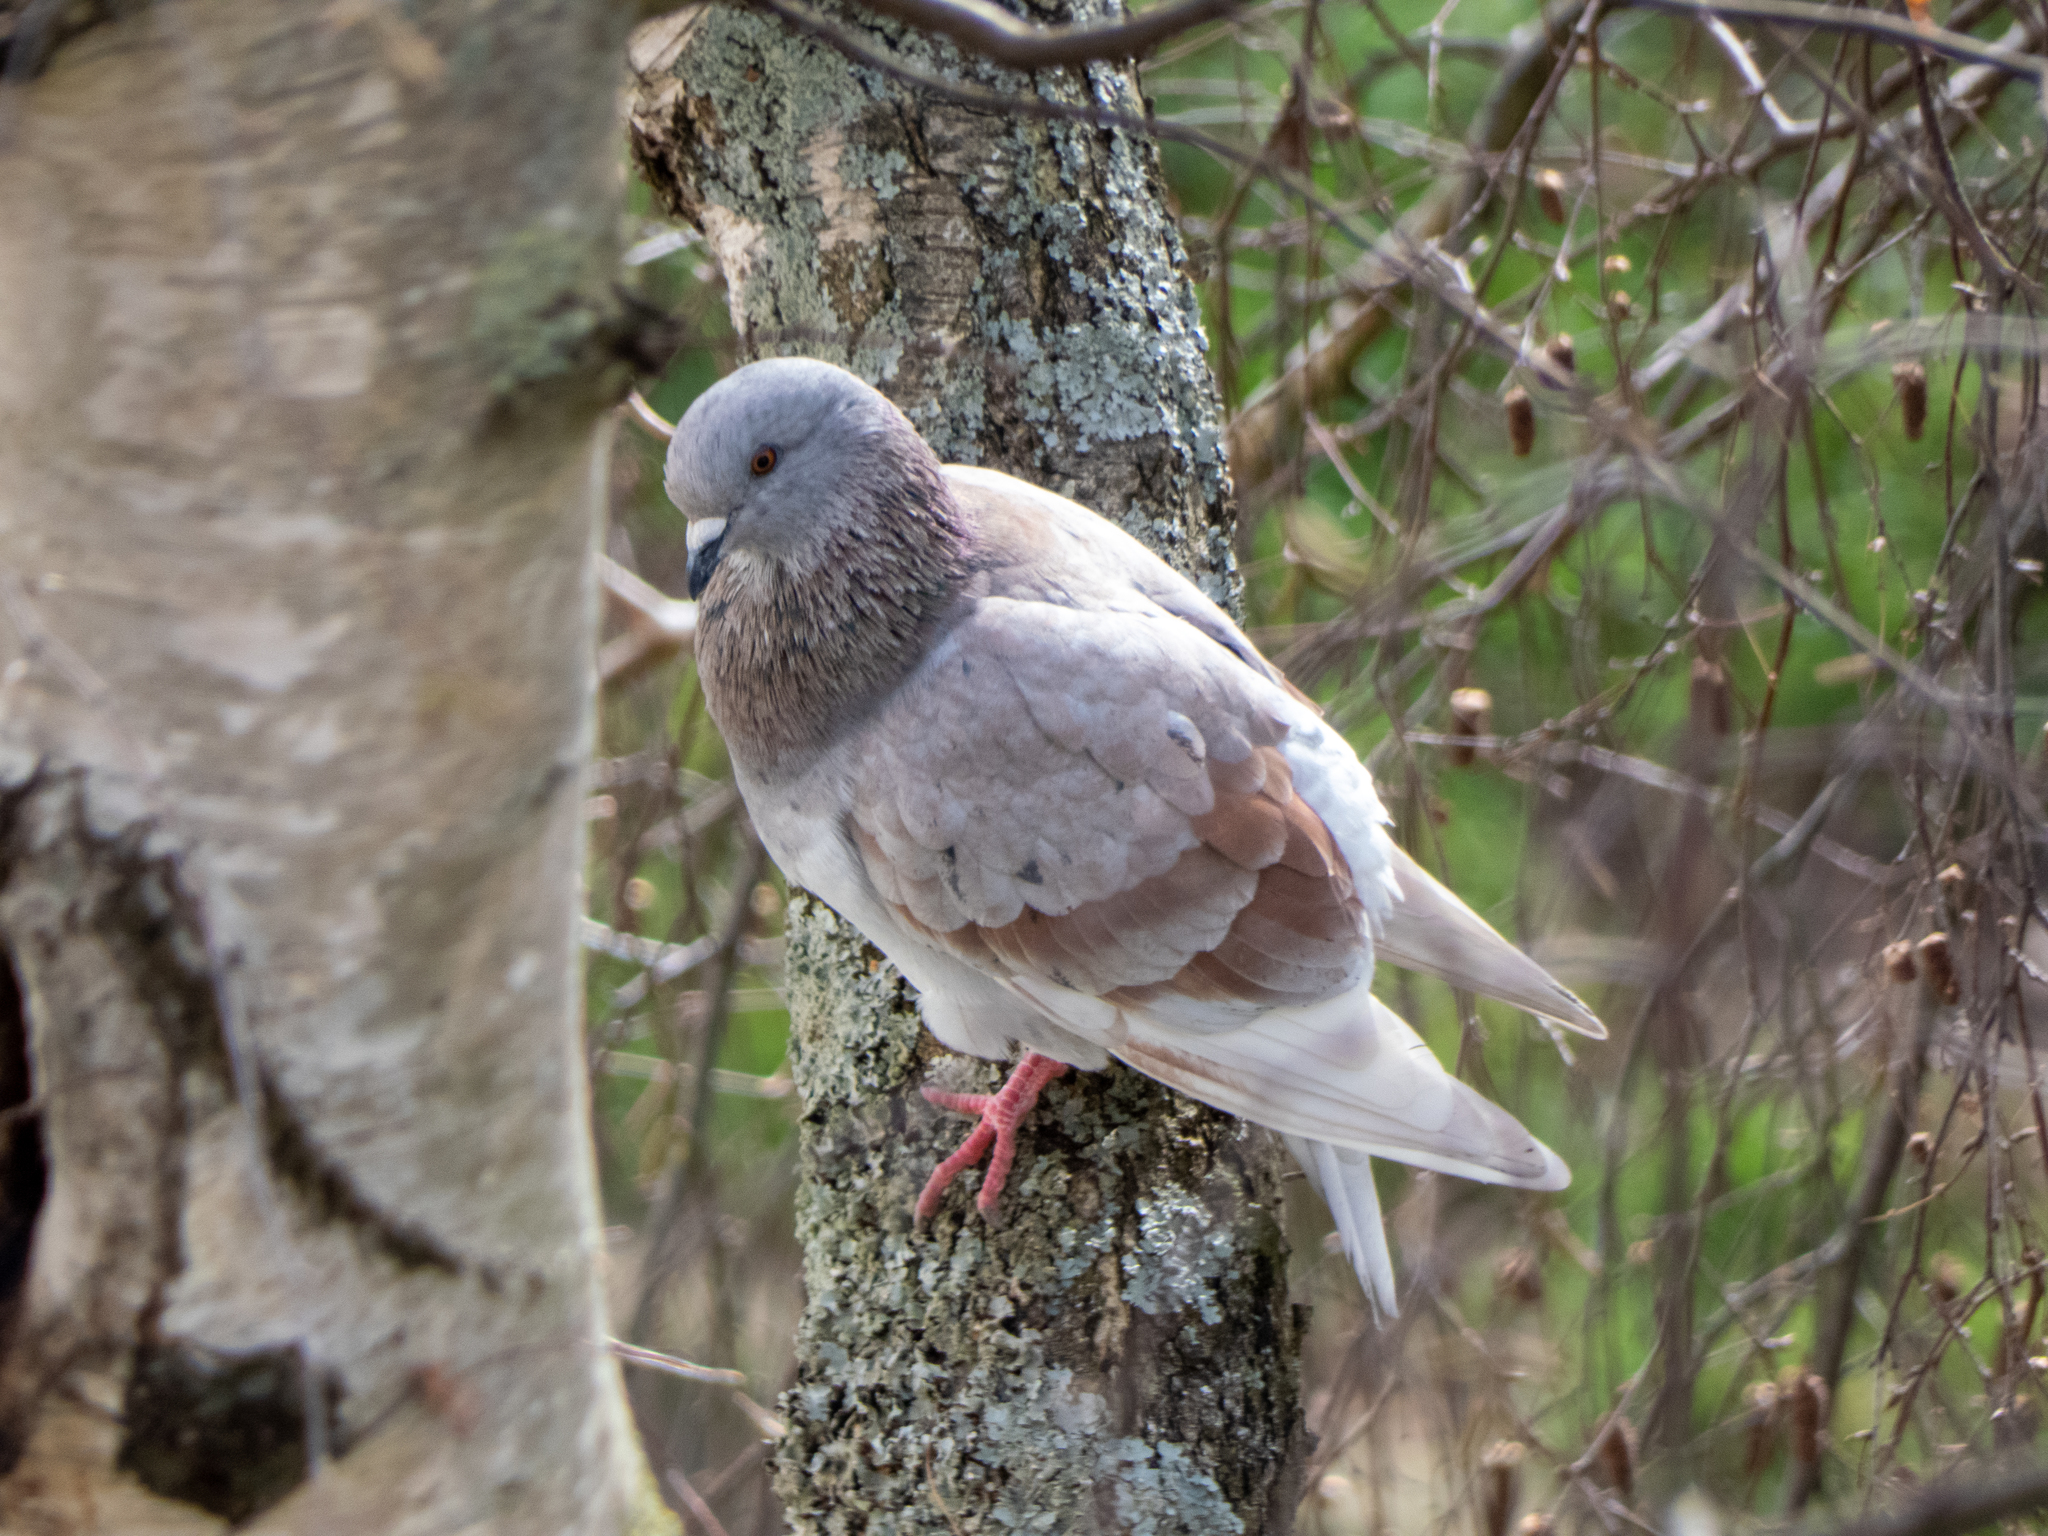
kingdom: Animalia
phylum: Chordata
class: Aves
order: Columbiformes
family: Columbidae
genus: Columba
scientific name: Columba livia
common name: Rock pigeon
